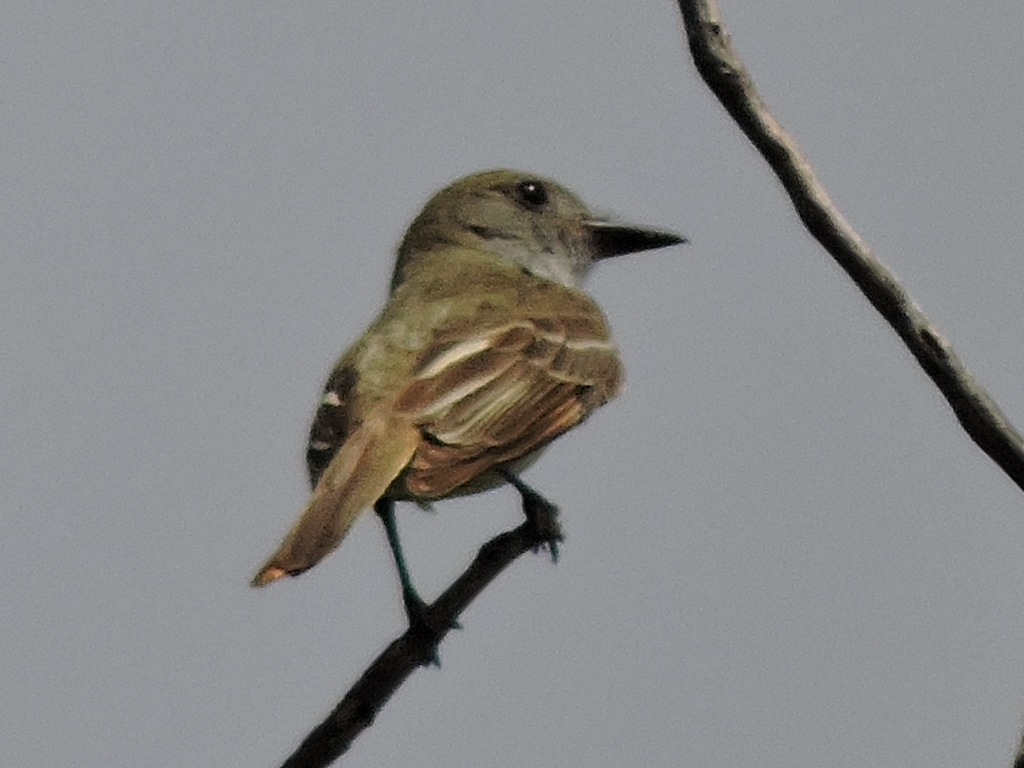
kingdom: Animalia
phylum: Chordata
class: Aves
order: Passeriformes
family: Tyrannidae
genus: Myiarchus
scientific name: Myiarchus crinitus
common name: Great crested flycatcher
